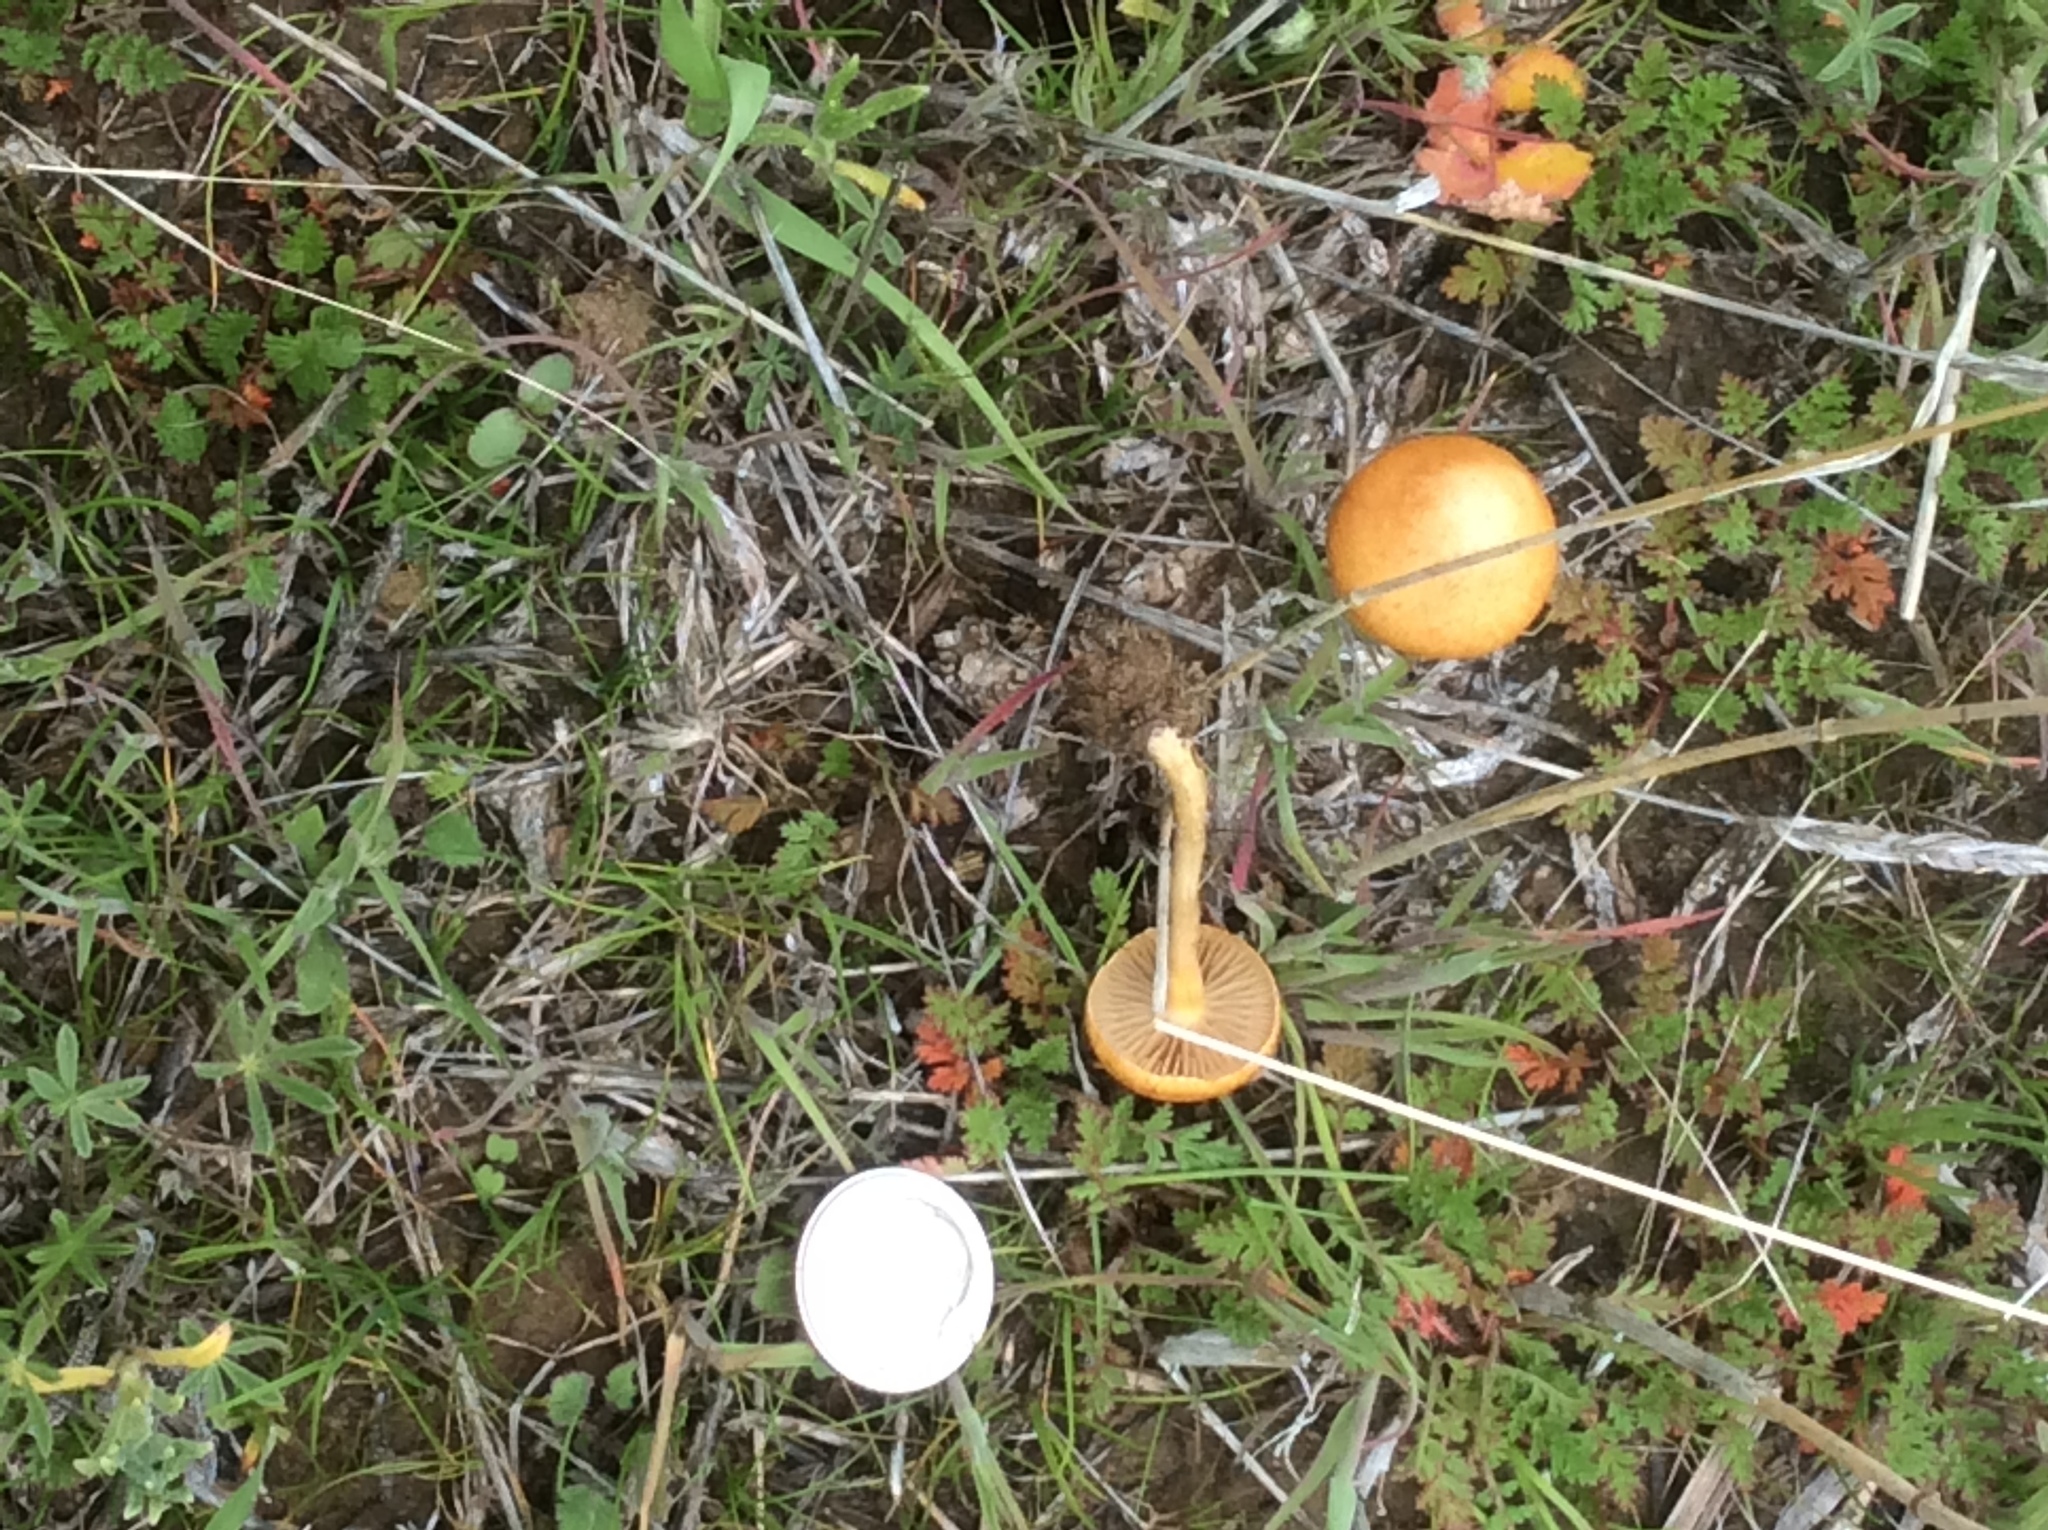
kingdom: Fungi
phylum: Basidiomycota
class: Agaricomycetes
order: Agaricales
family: Strophariaceae
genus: Agrocybe
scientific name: Agrocybe pediades
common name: Common fieldcap
